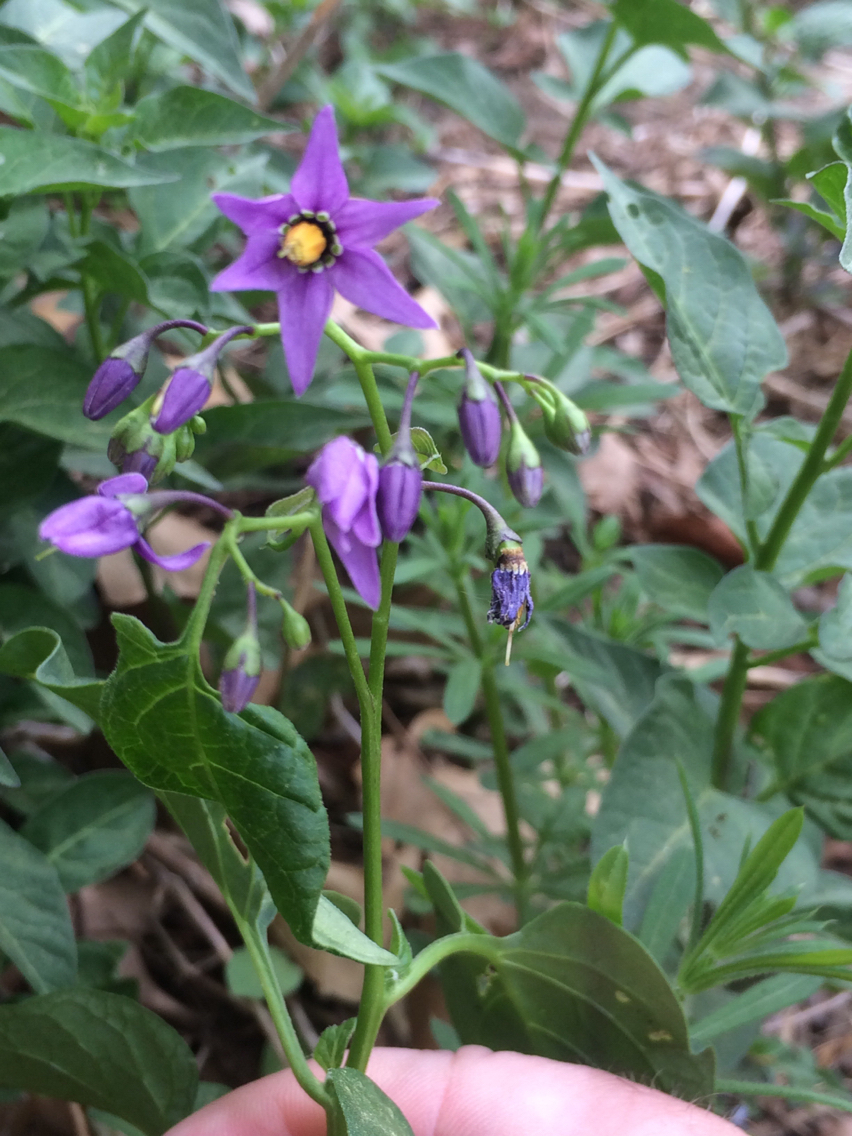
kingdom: Plantae
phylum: Tracheophyta
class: Magnoliopsida
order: Solanales
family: Solanaceae
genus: Solanum
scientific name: Solanum dulcamara
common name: Climbing nightshade
